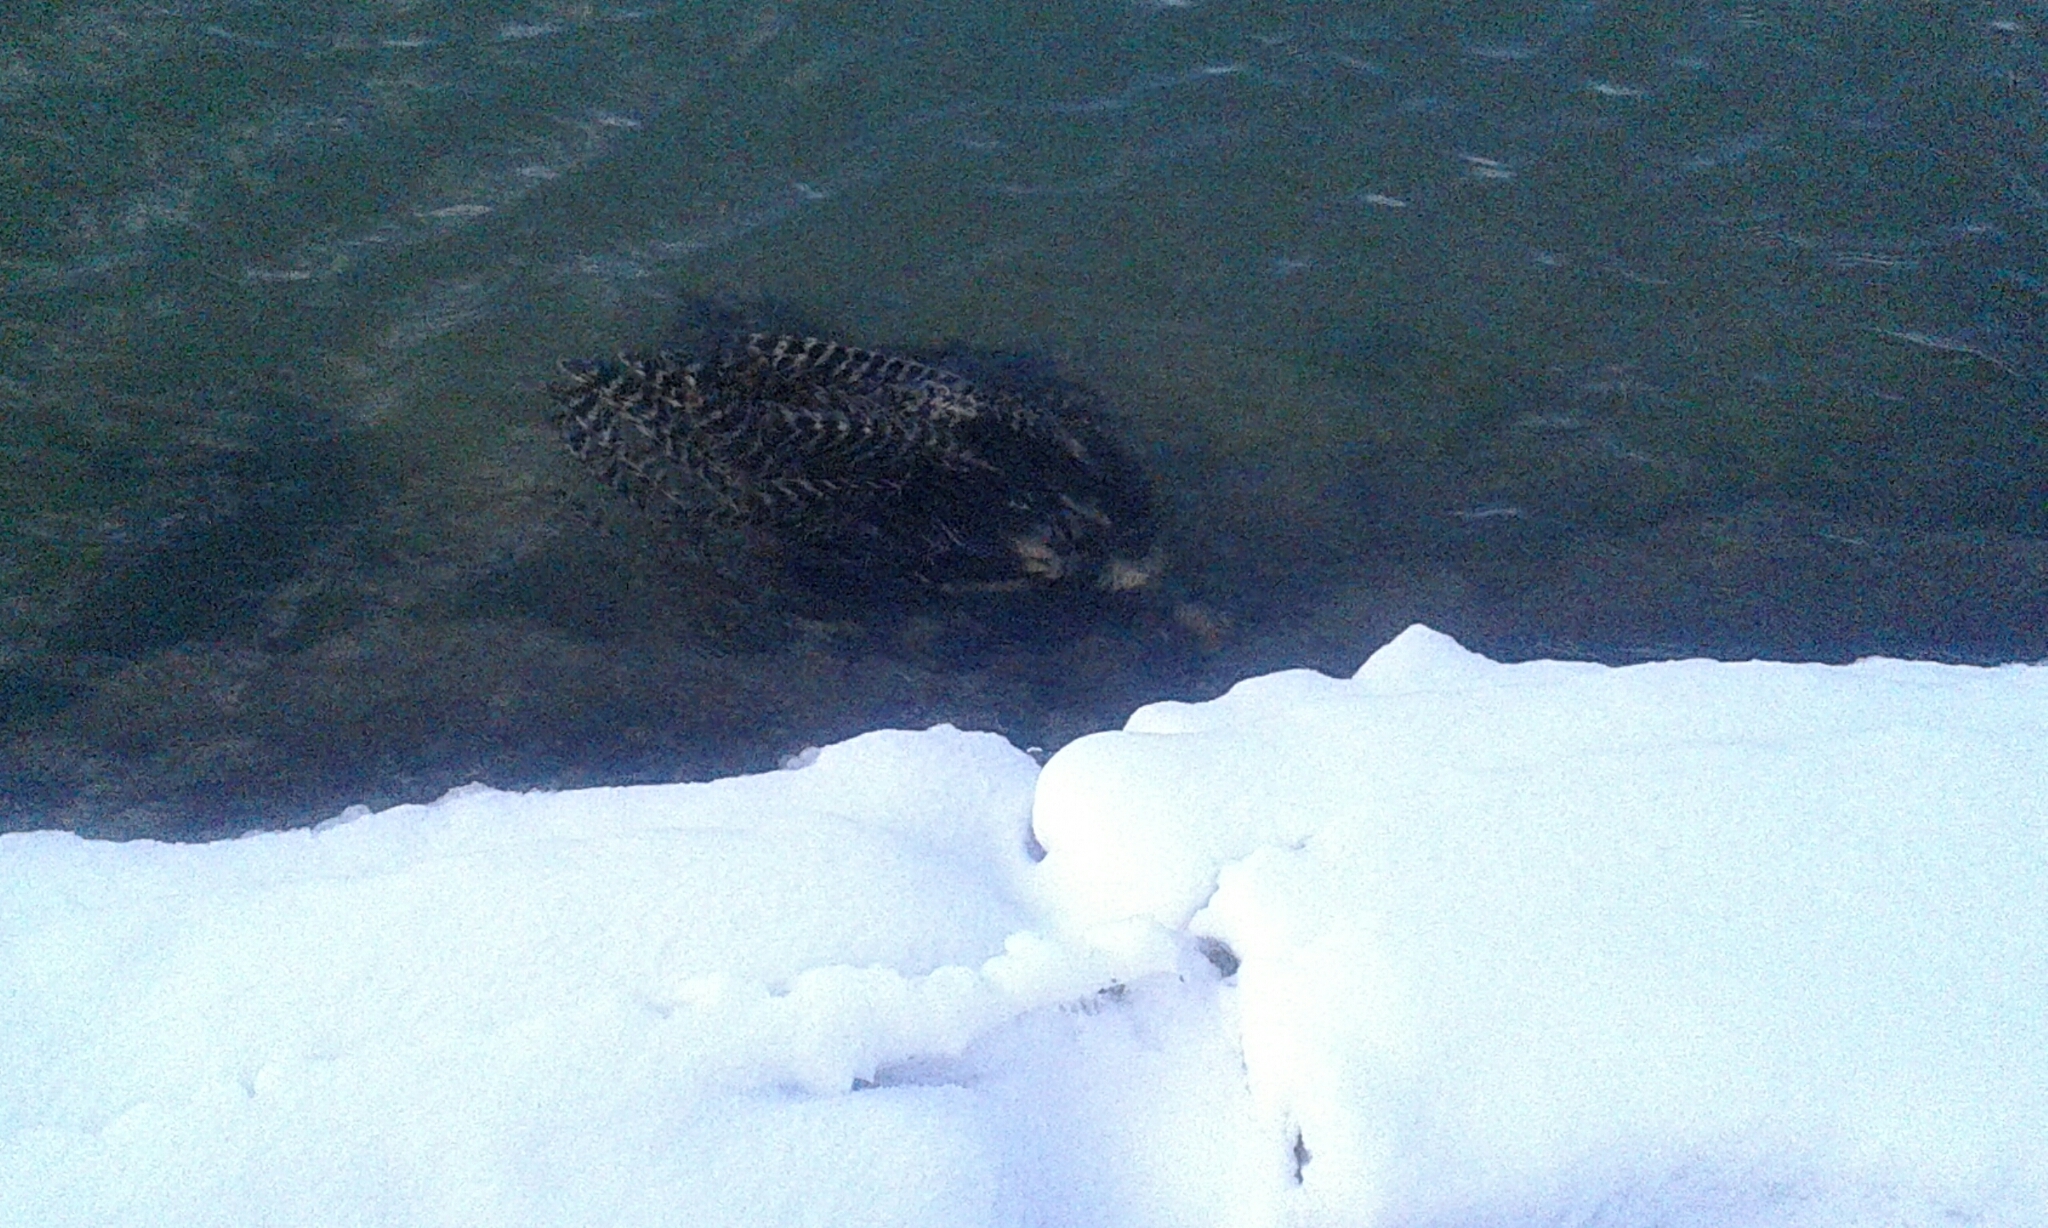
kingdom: Animalia
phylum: Chordata
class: Aves
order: Galliformes
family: Phasianidae
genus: Meleagris
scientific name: Meleagris gallopavo
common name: Wild turkey
